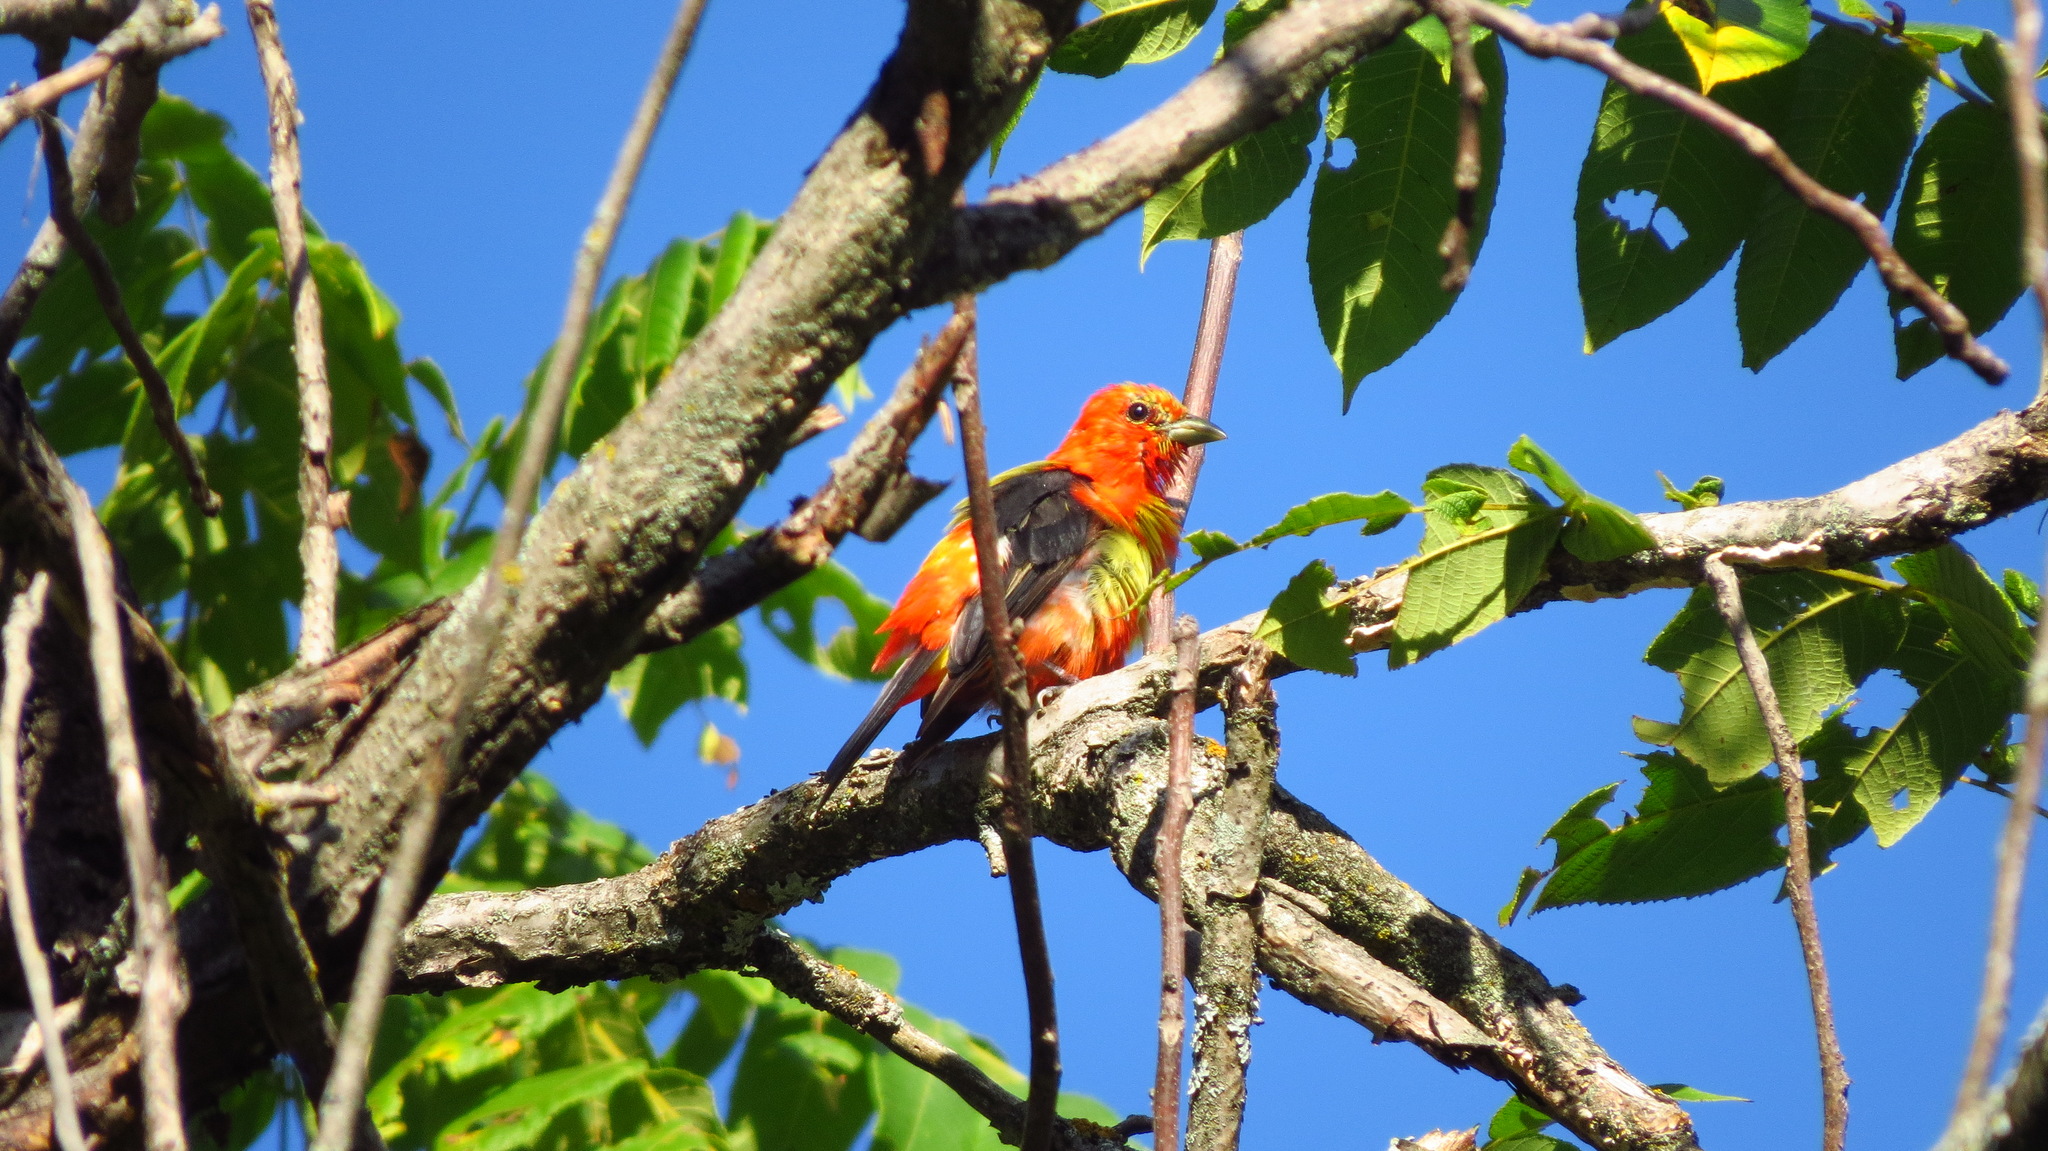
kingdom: Animalia
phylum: Chordata
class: Aves
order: Passeriformes
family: Cardinalidae
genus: Piranga
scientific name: Piranga olivacea
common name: Scarlet tanager
